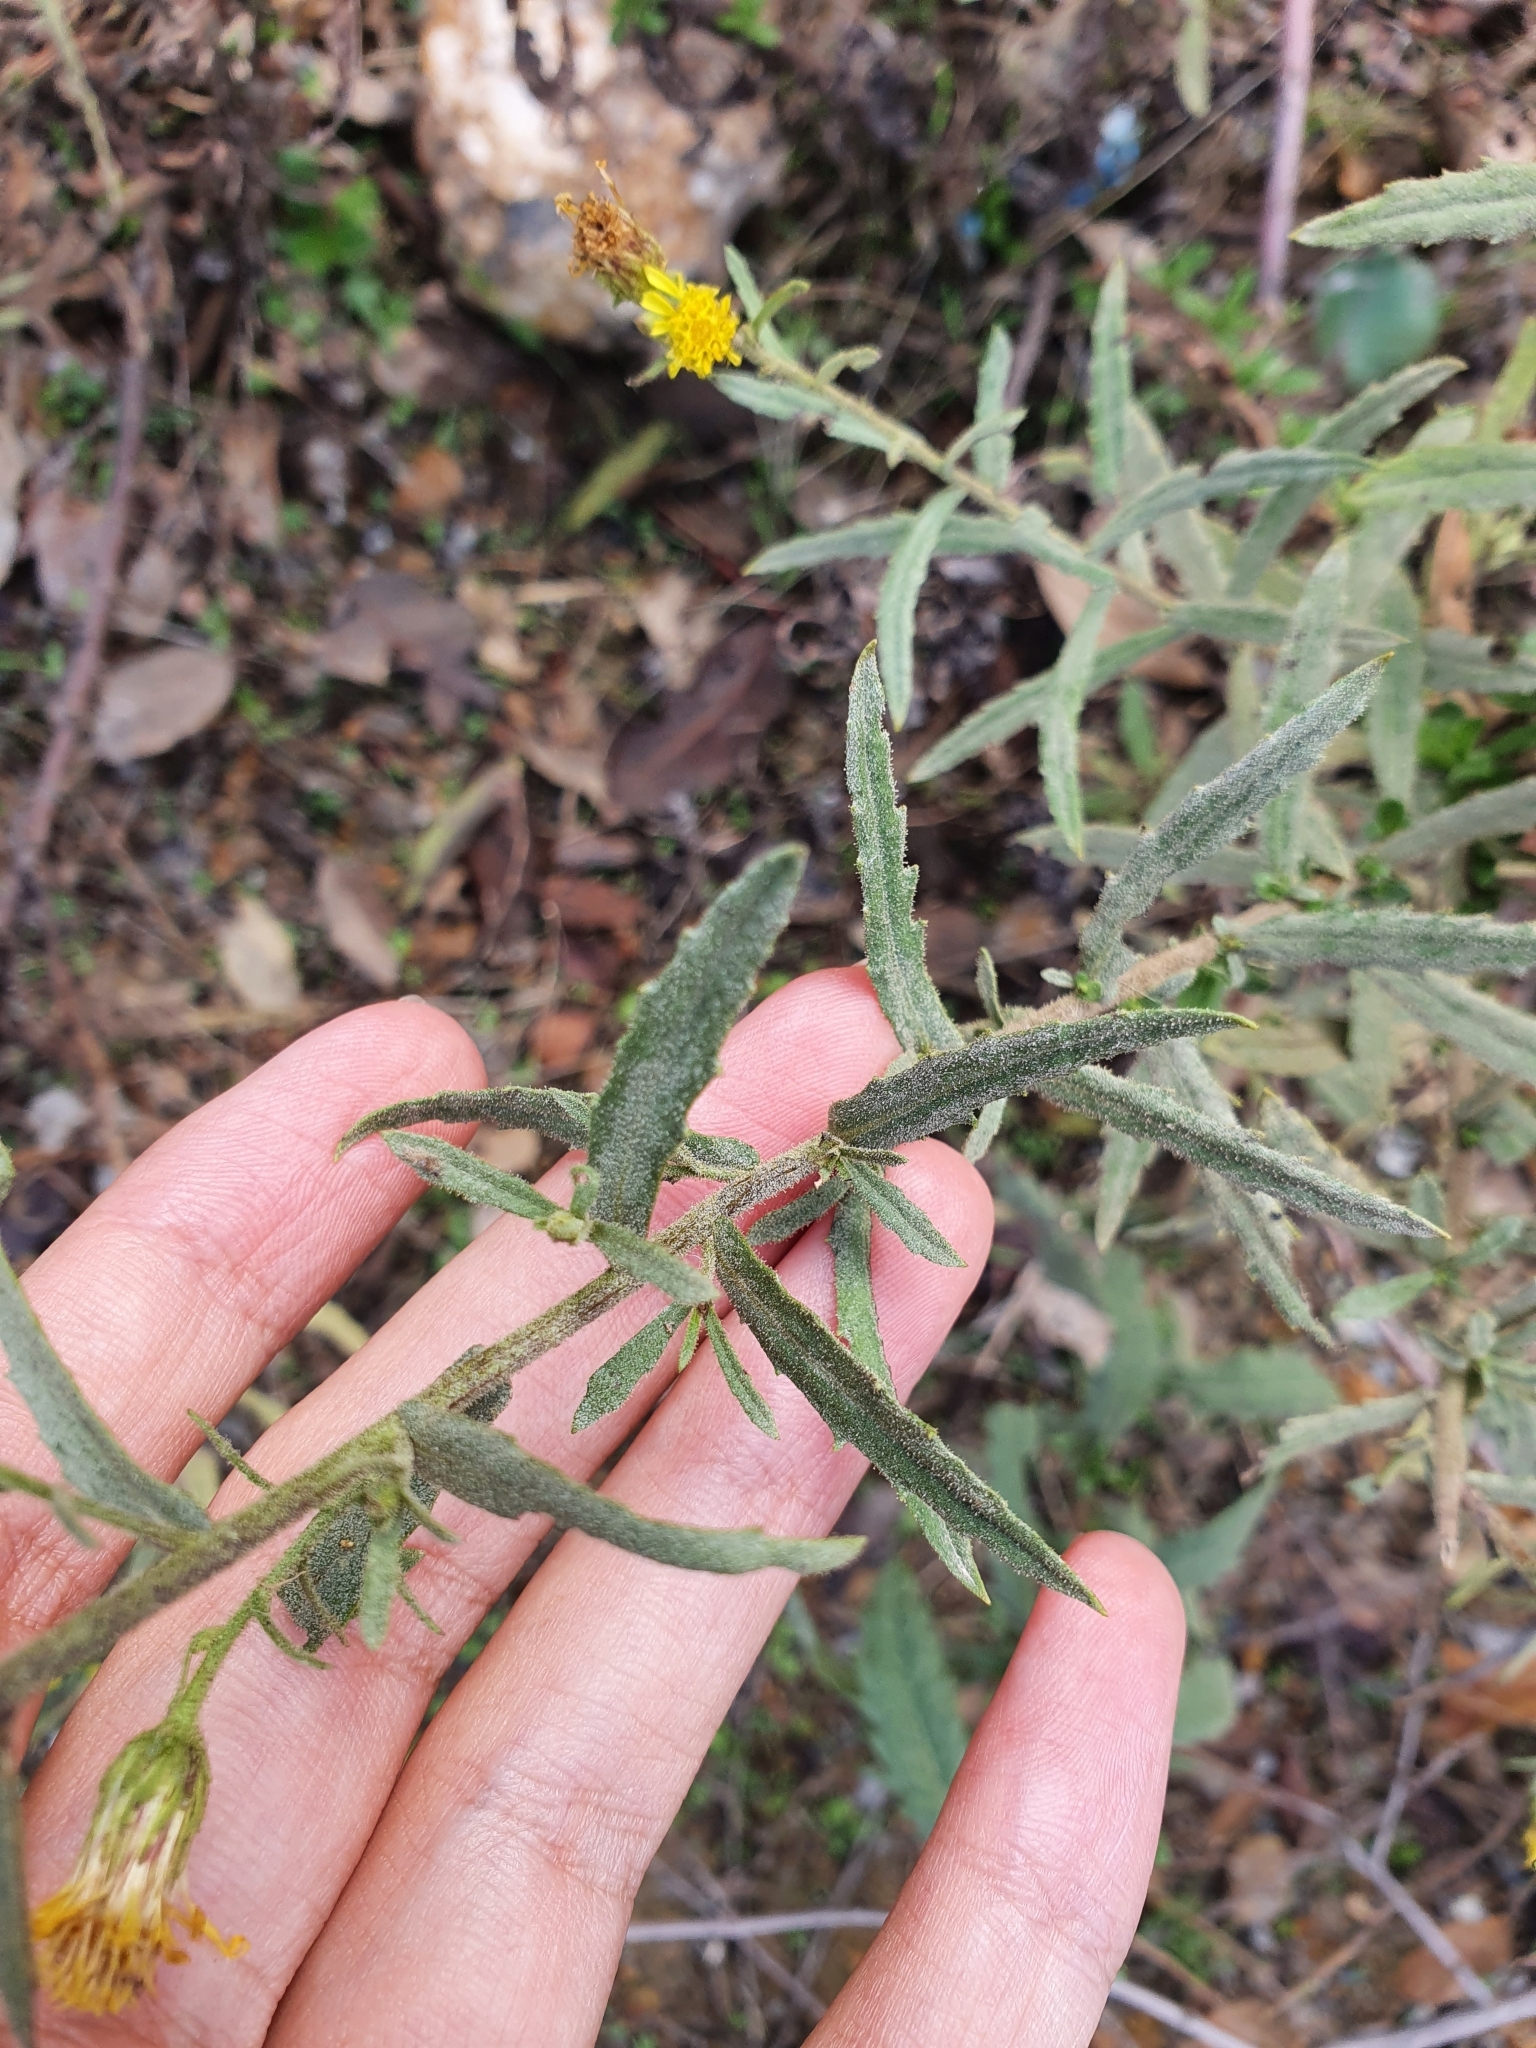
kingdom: Plantae
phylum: Tracheophyta
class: Magnoliopsida
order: Asterales
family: Asteraceae
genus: Dittrichia
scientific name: Dittrichia viscosa
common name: Woody fleabane
